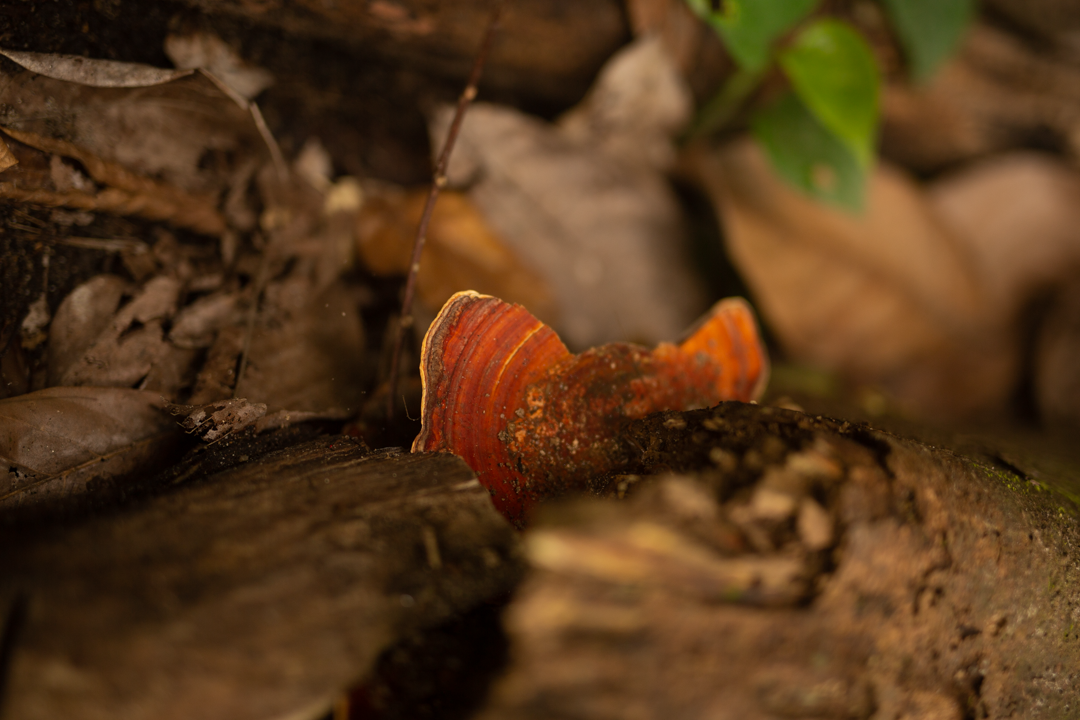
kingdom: Fungi
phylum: Basidiomycota
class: Agaricomycetes
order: Polyporales
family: Polyporaceae
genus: Trametes
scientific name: Trametes coccinea
